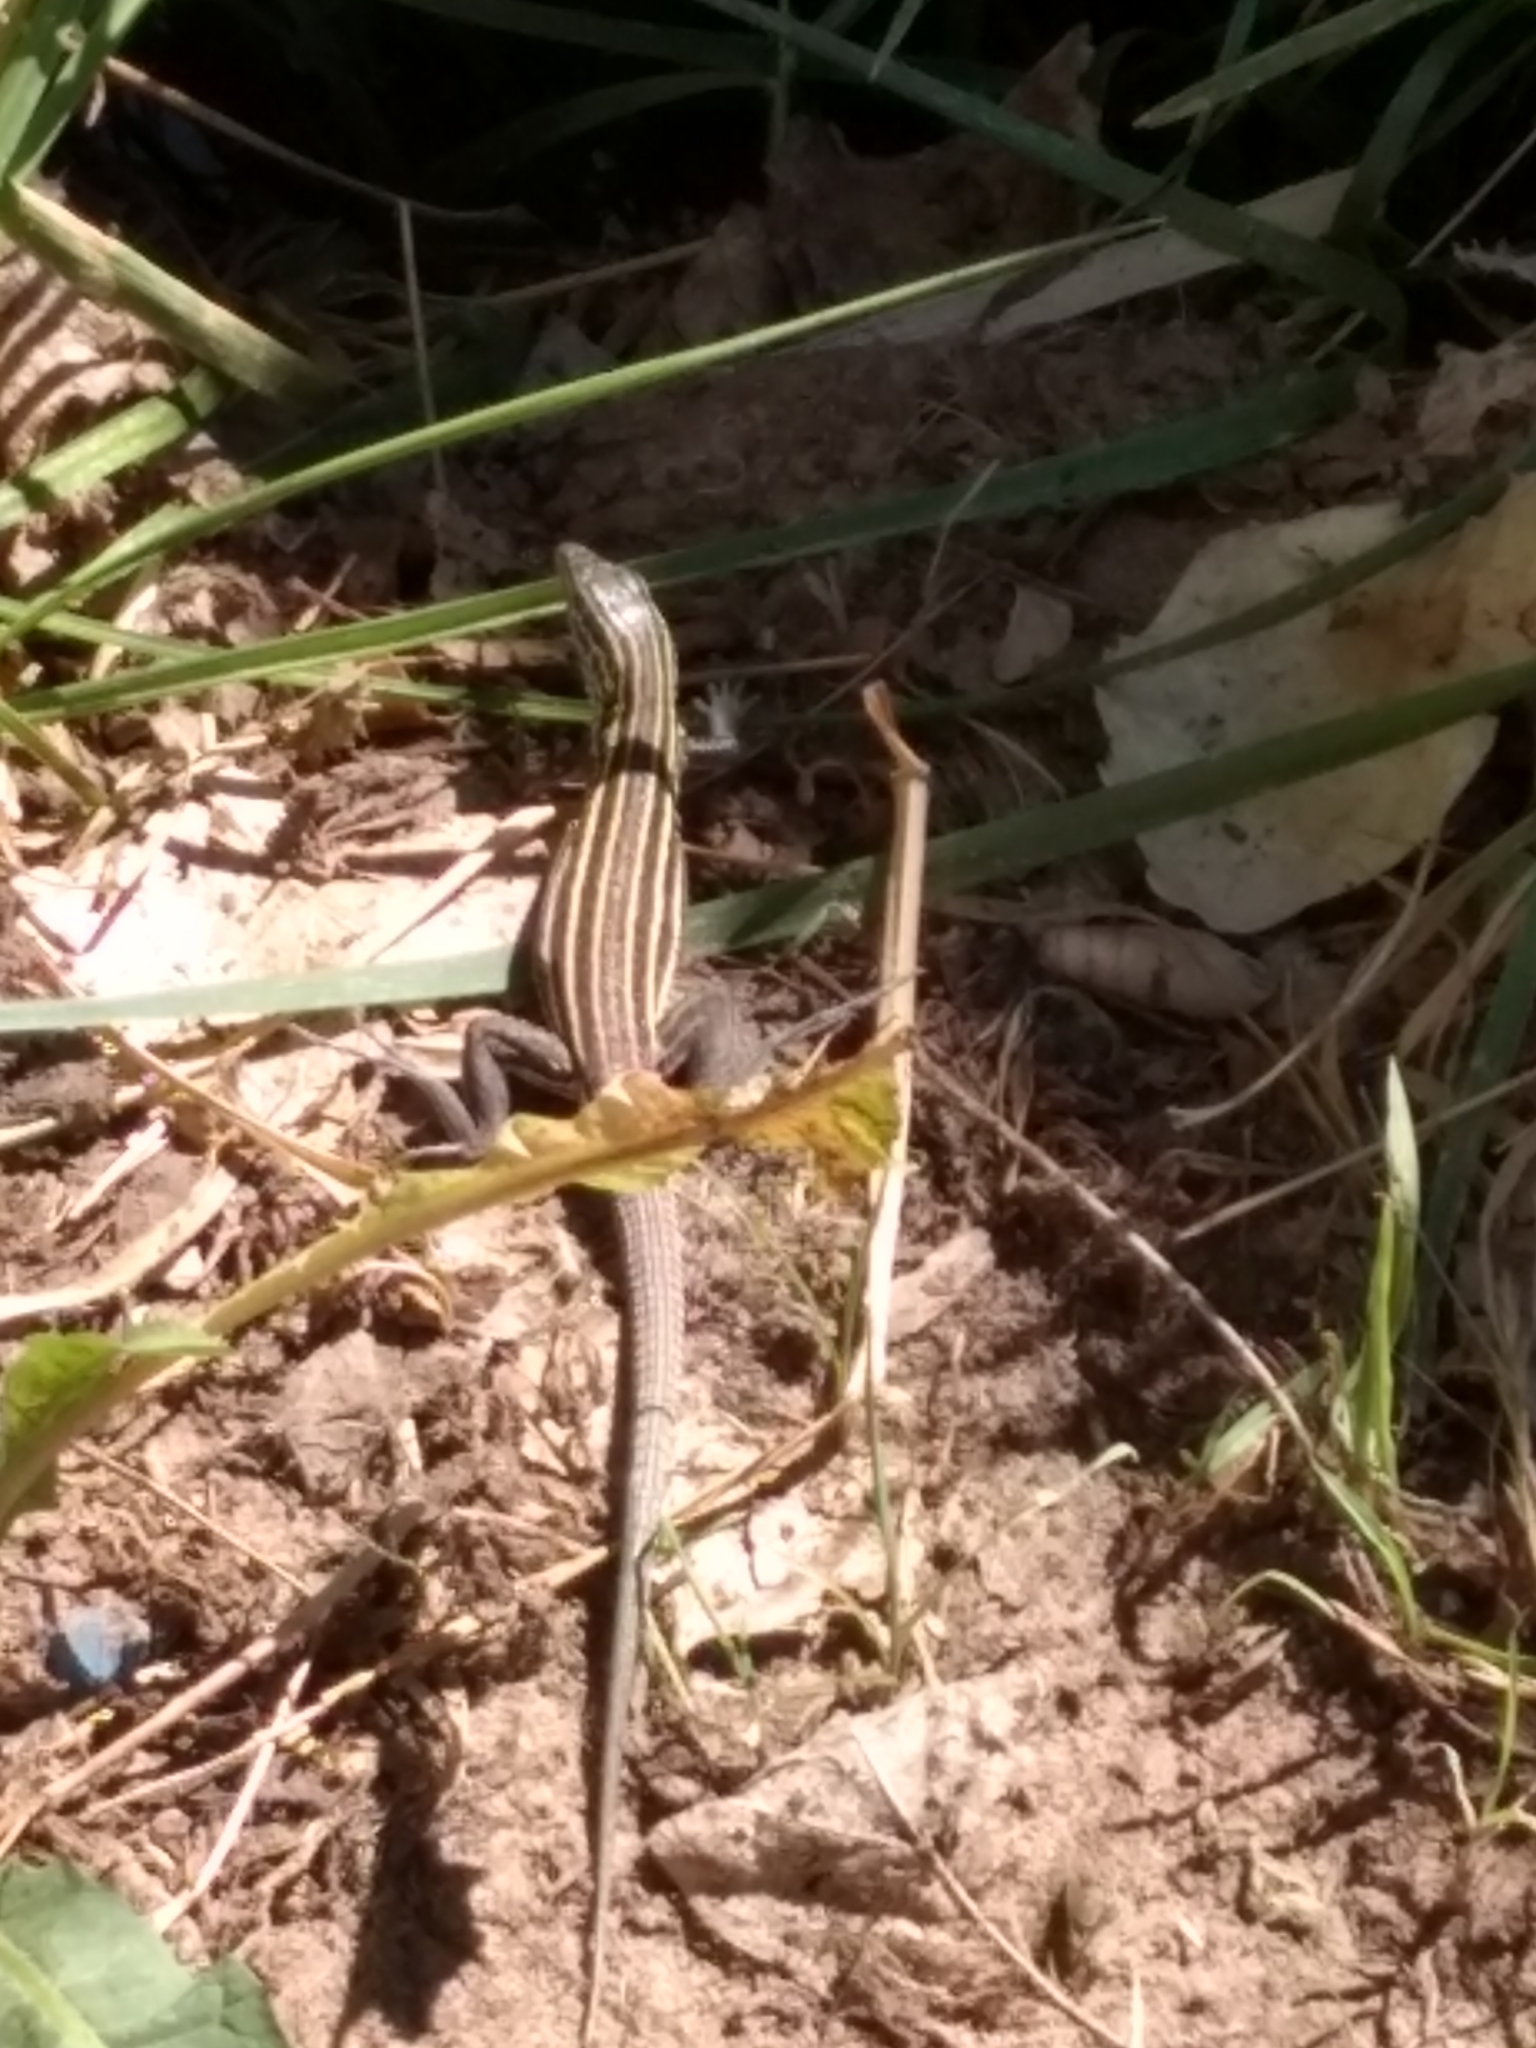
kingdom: Animalia
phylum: Chordata
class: Squamata
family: Teiidae
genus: Aspidoscelis
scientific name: Aspidoscelis velox
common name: Plateau striped whiptail
